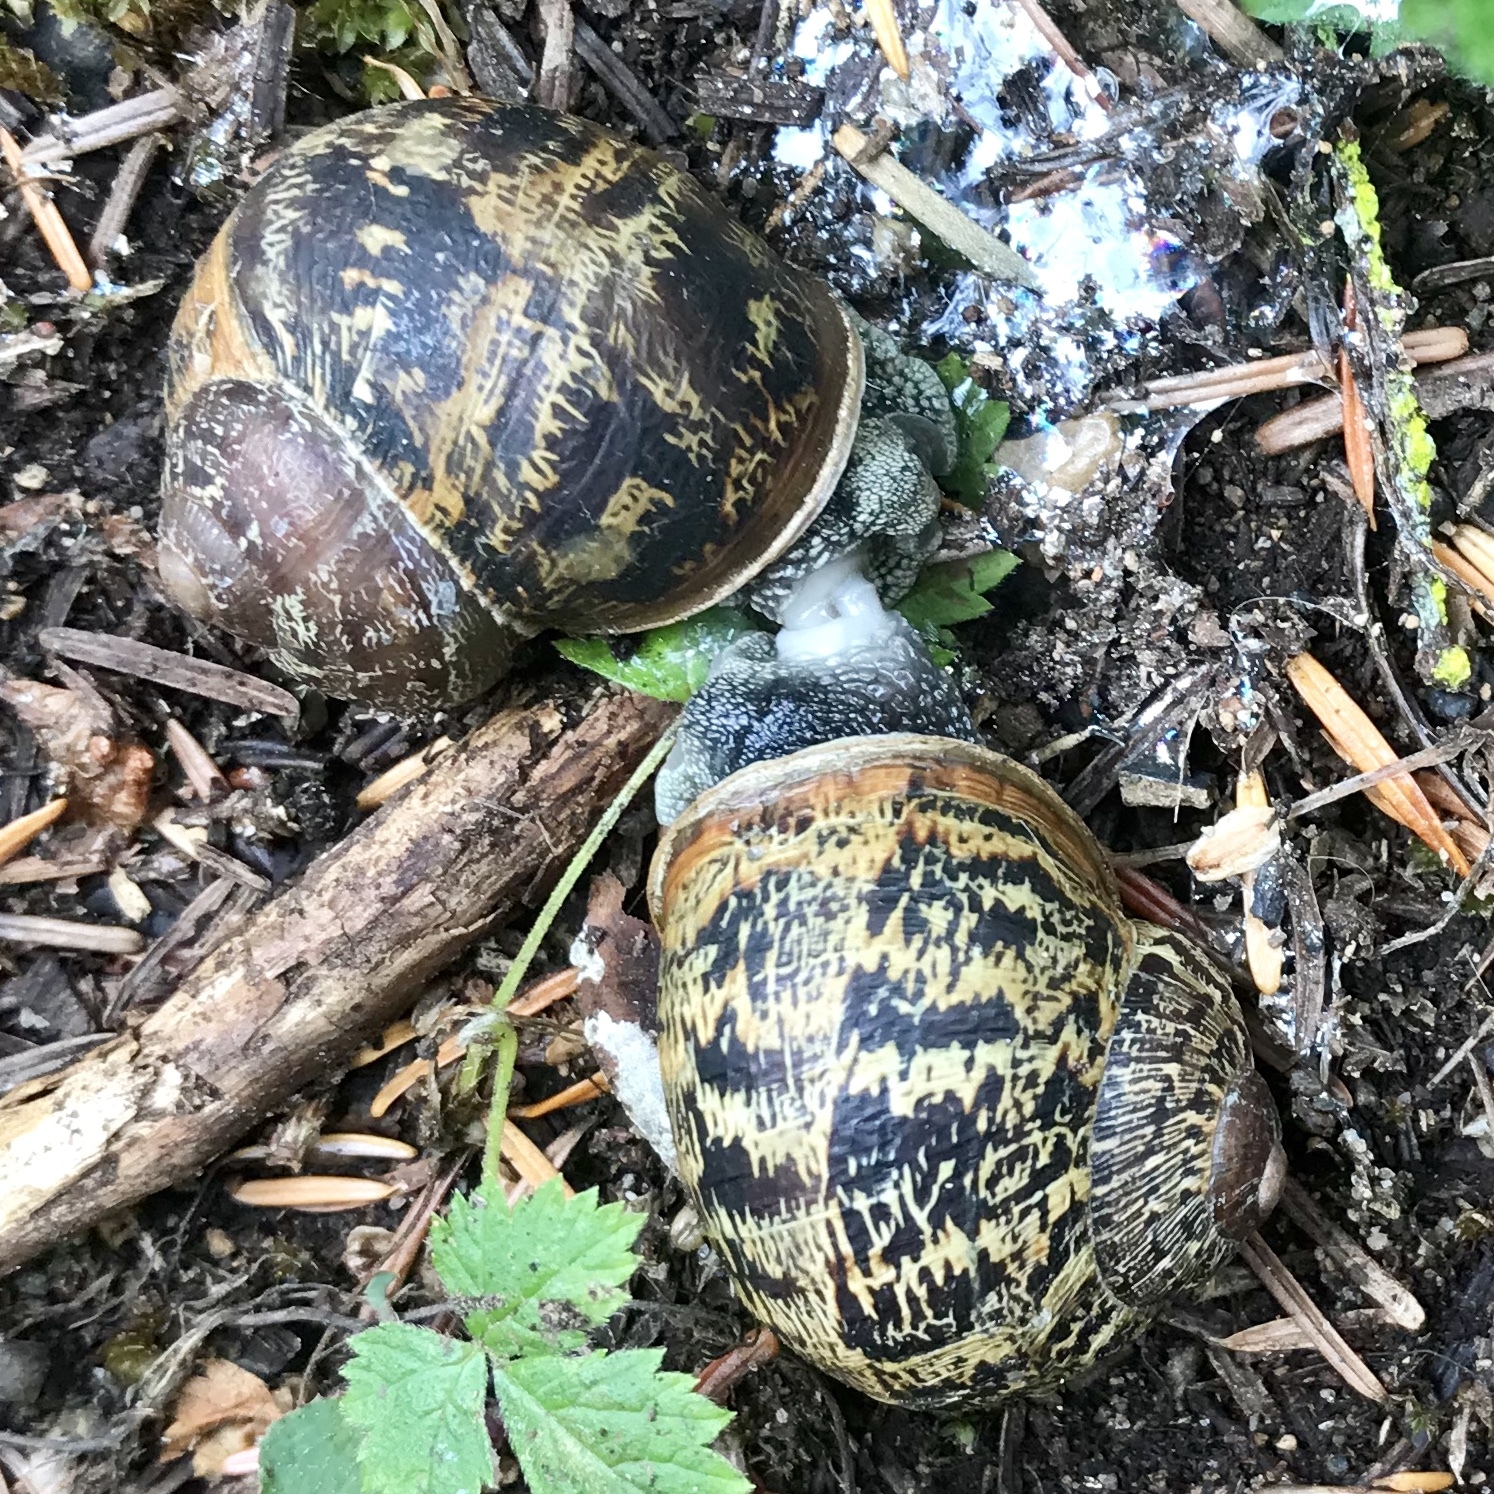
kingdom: Animalia
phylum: Mollusca
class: Gastropoda
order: Stylommatophora
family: Helicidae
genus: Cornu
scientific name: Cornu aspersum
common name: Brown garden snail
